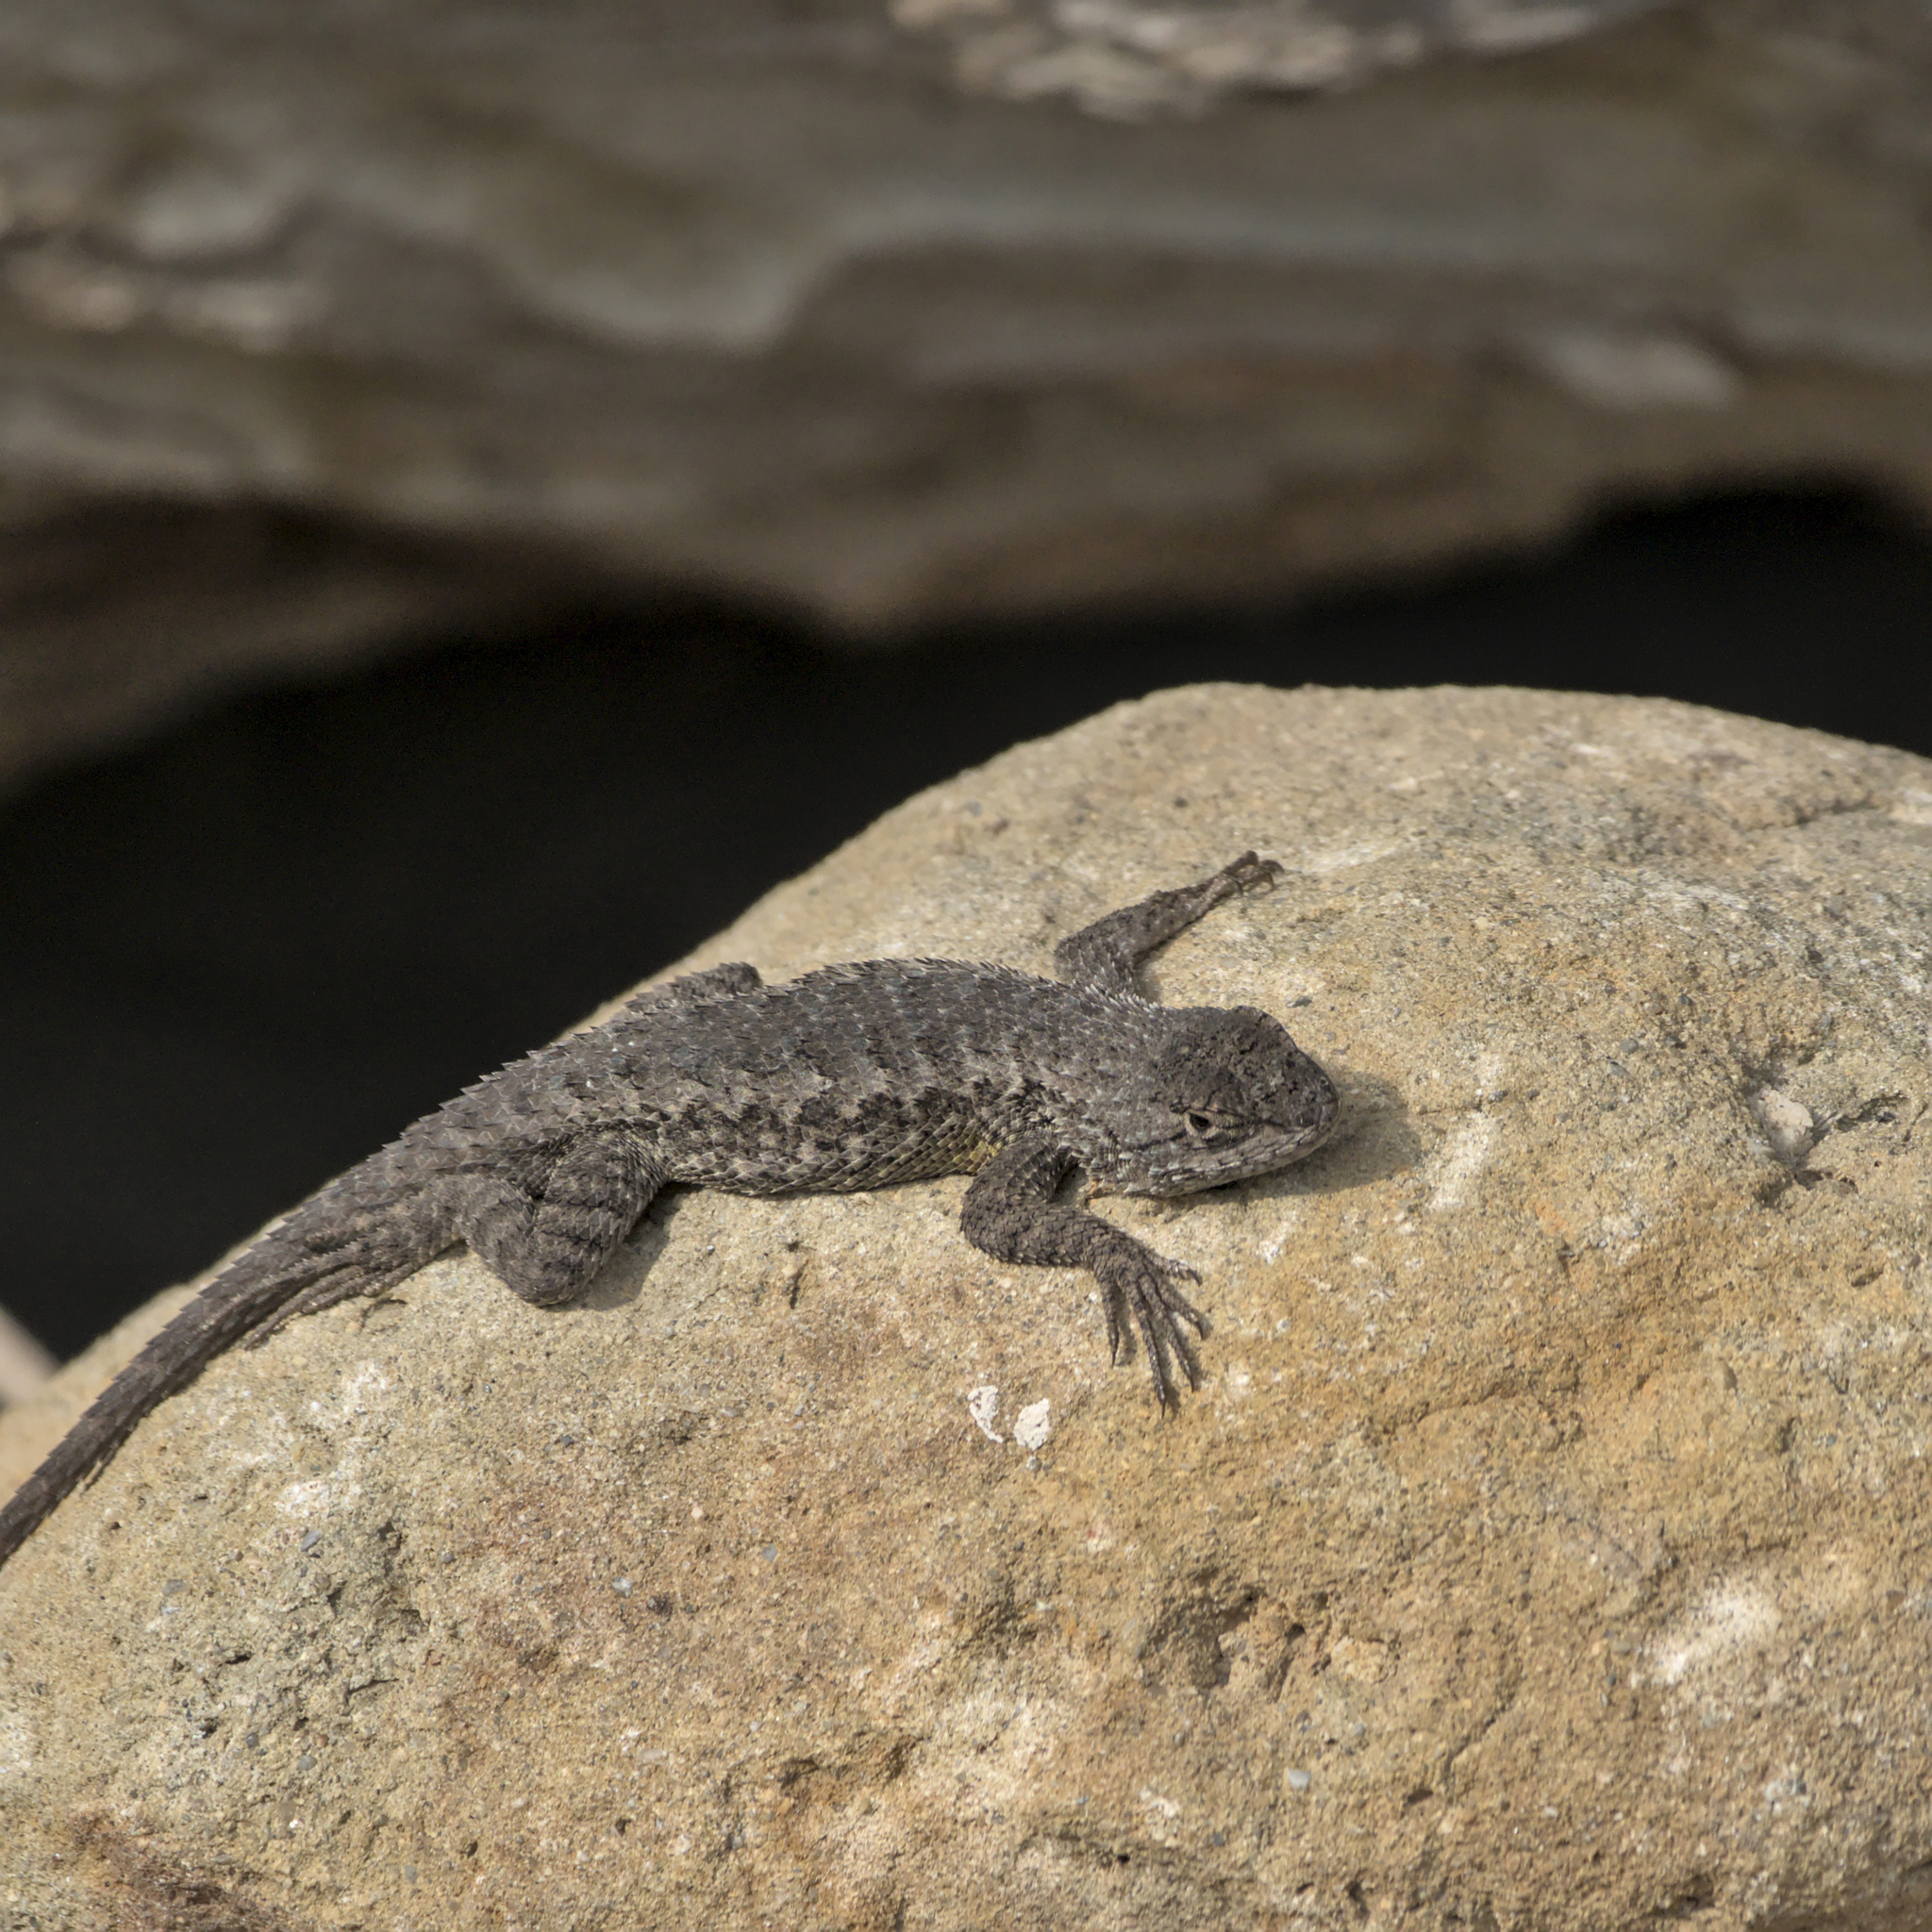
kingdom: Animalia
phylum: Chordata
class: Squamata
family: Phrynosomatidae
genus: Sceloporus
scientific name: Sceloporus occidentalis
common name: Western fence lizard
